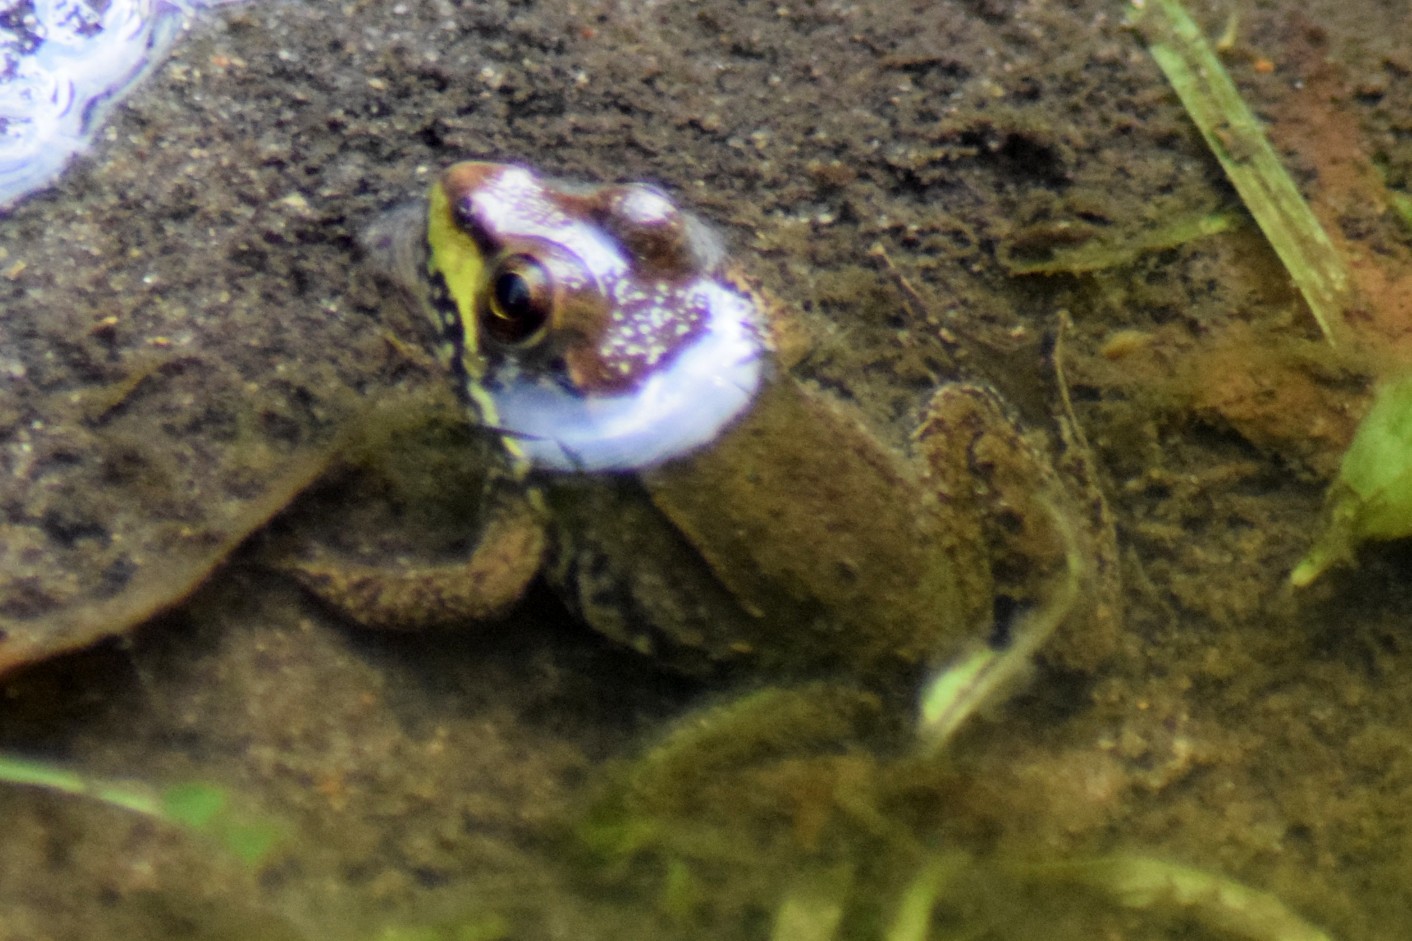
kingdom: Animalia
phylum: Chordata
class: Amphibia
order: Anura
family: Ranidae
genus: Lithobates
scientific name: Lithobates clamitans
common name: Green frog
